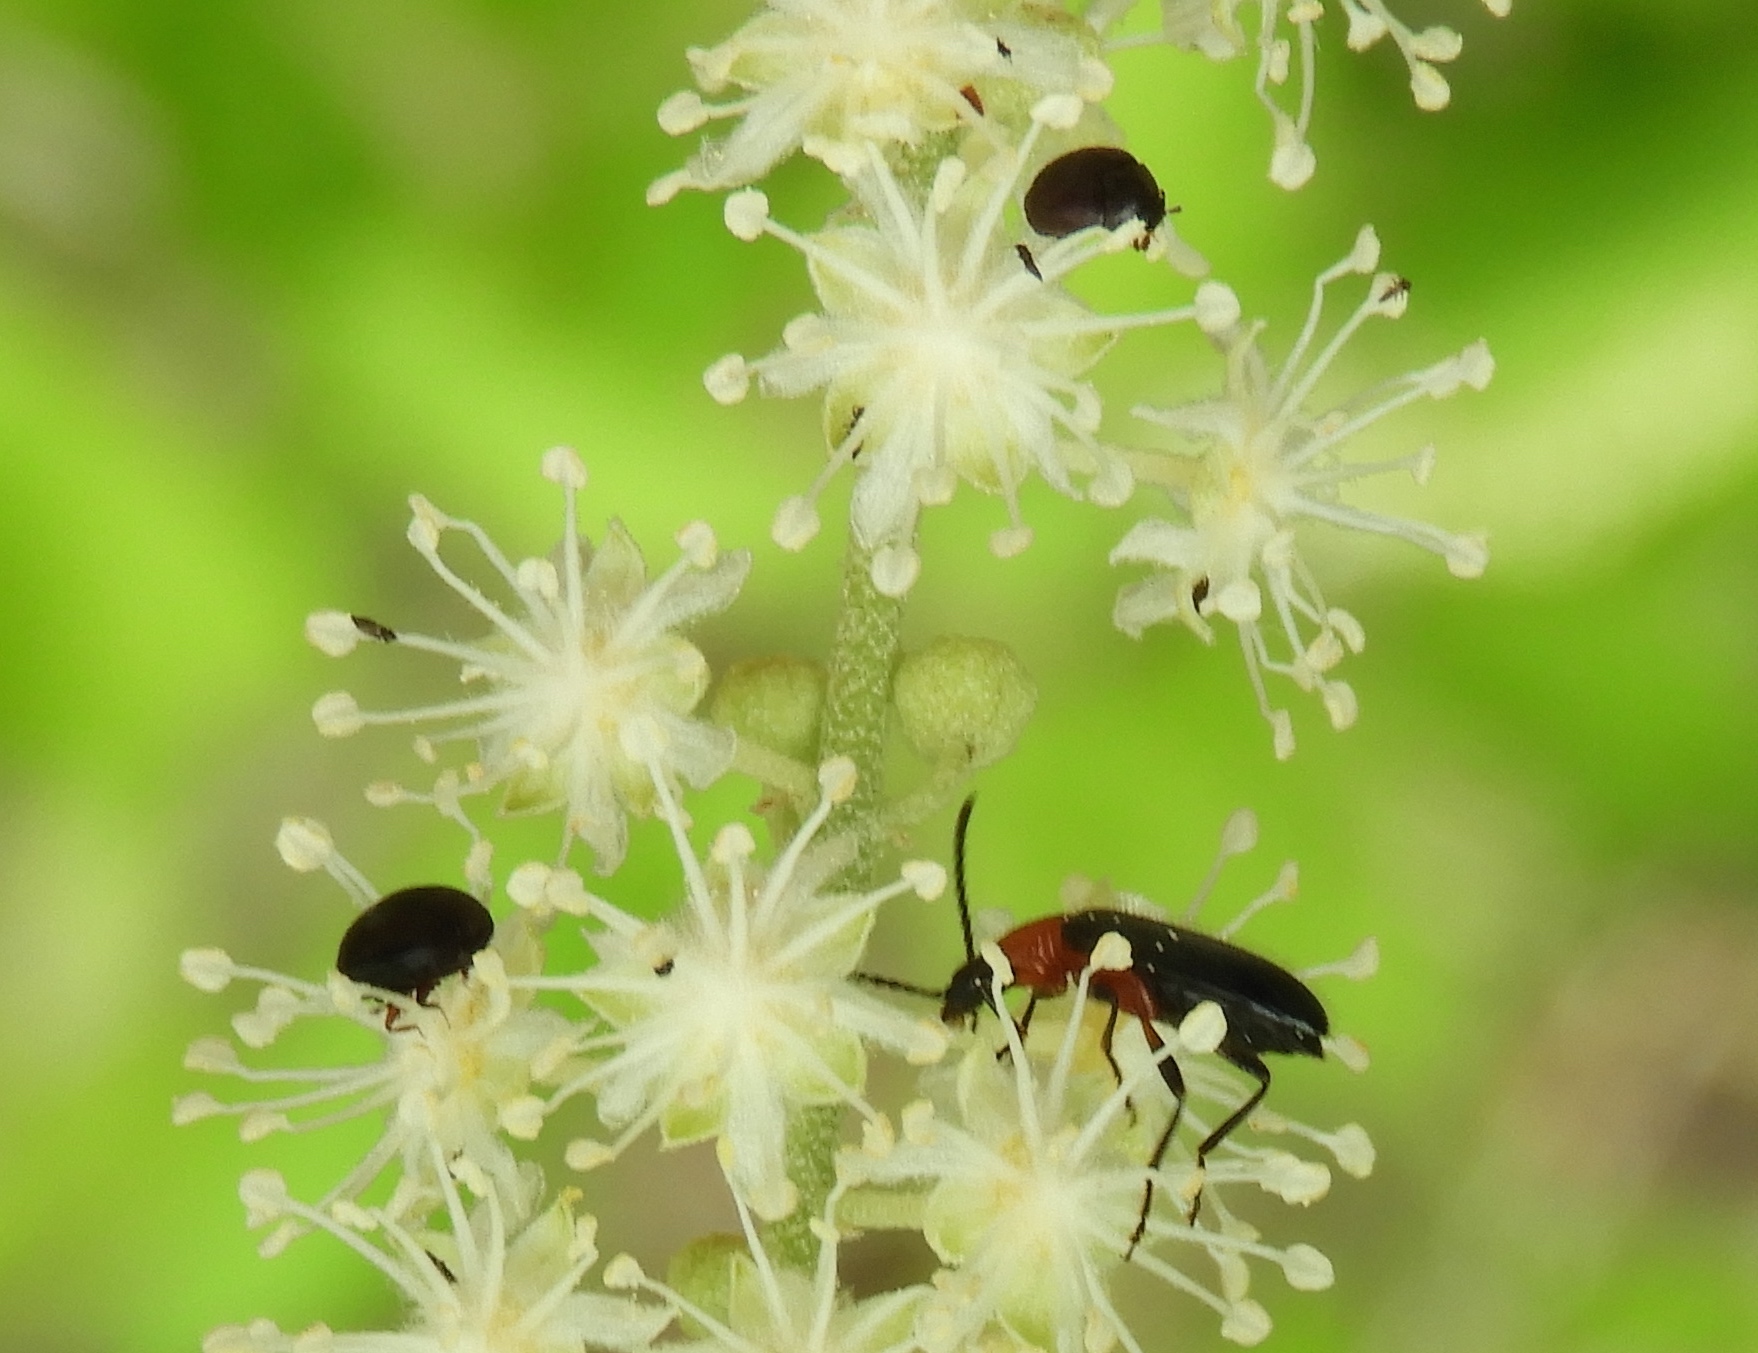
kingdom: Animalia
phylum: Arthropoda
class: Insecta
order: Coleoptera
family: Tenebrionidae
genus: Statira
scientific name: Statira
